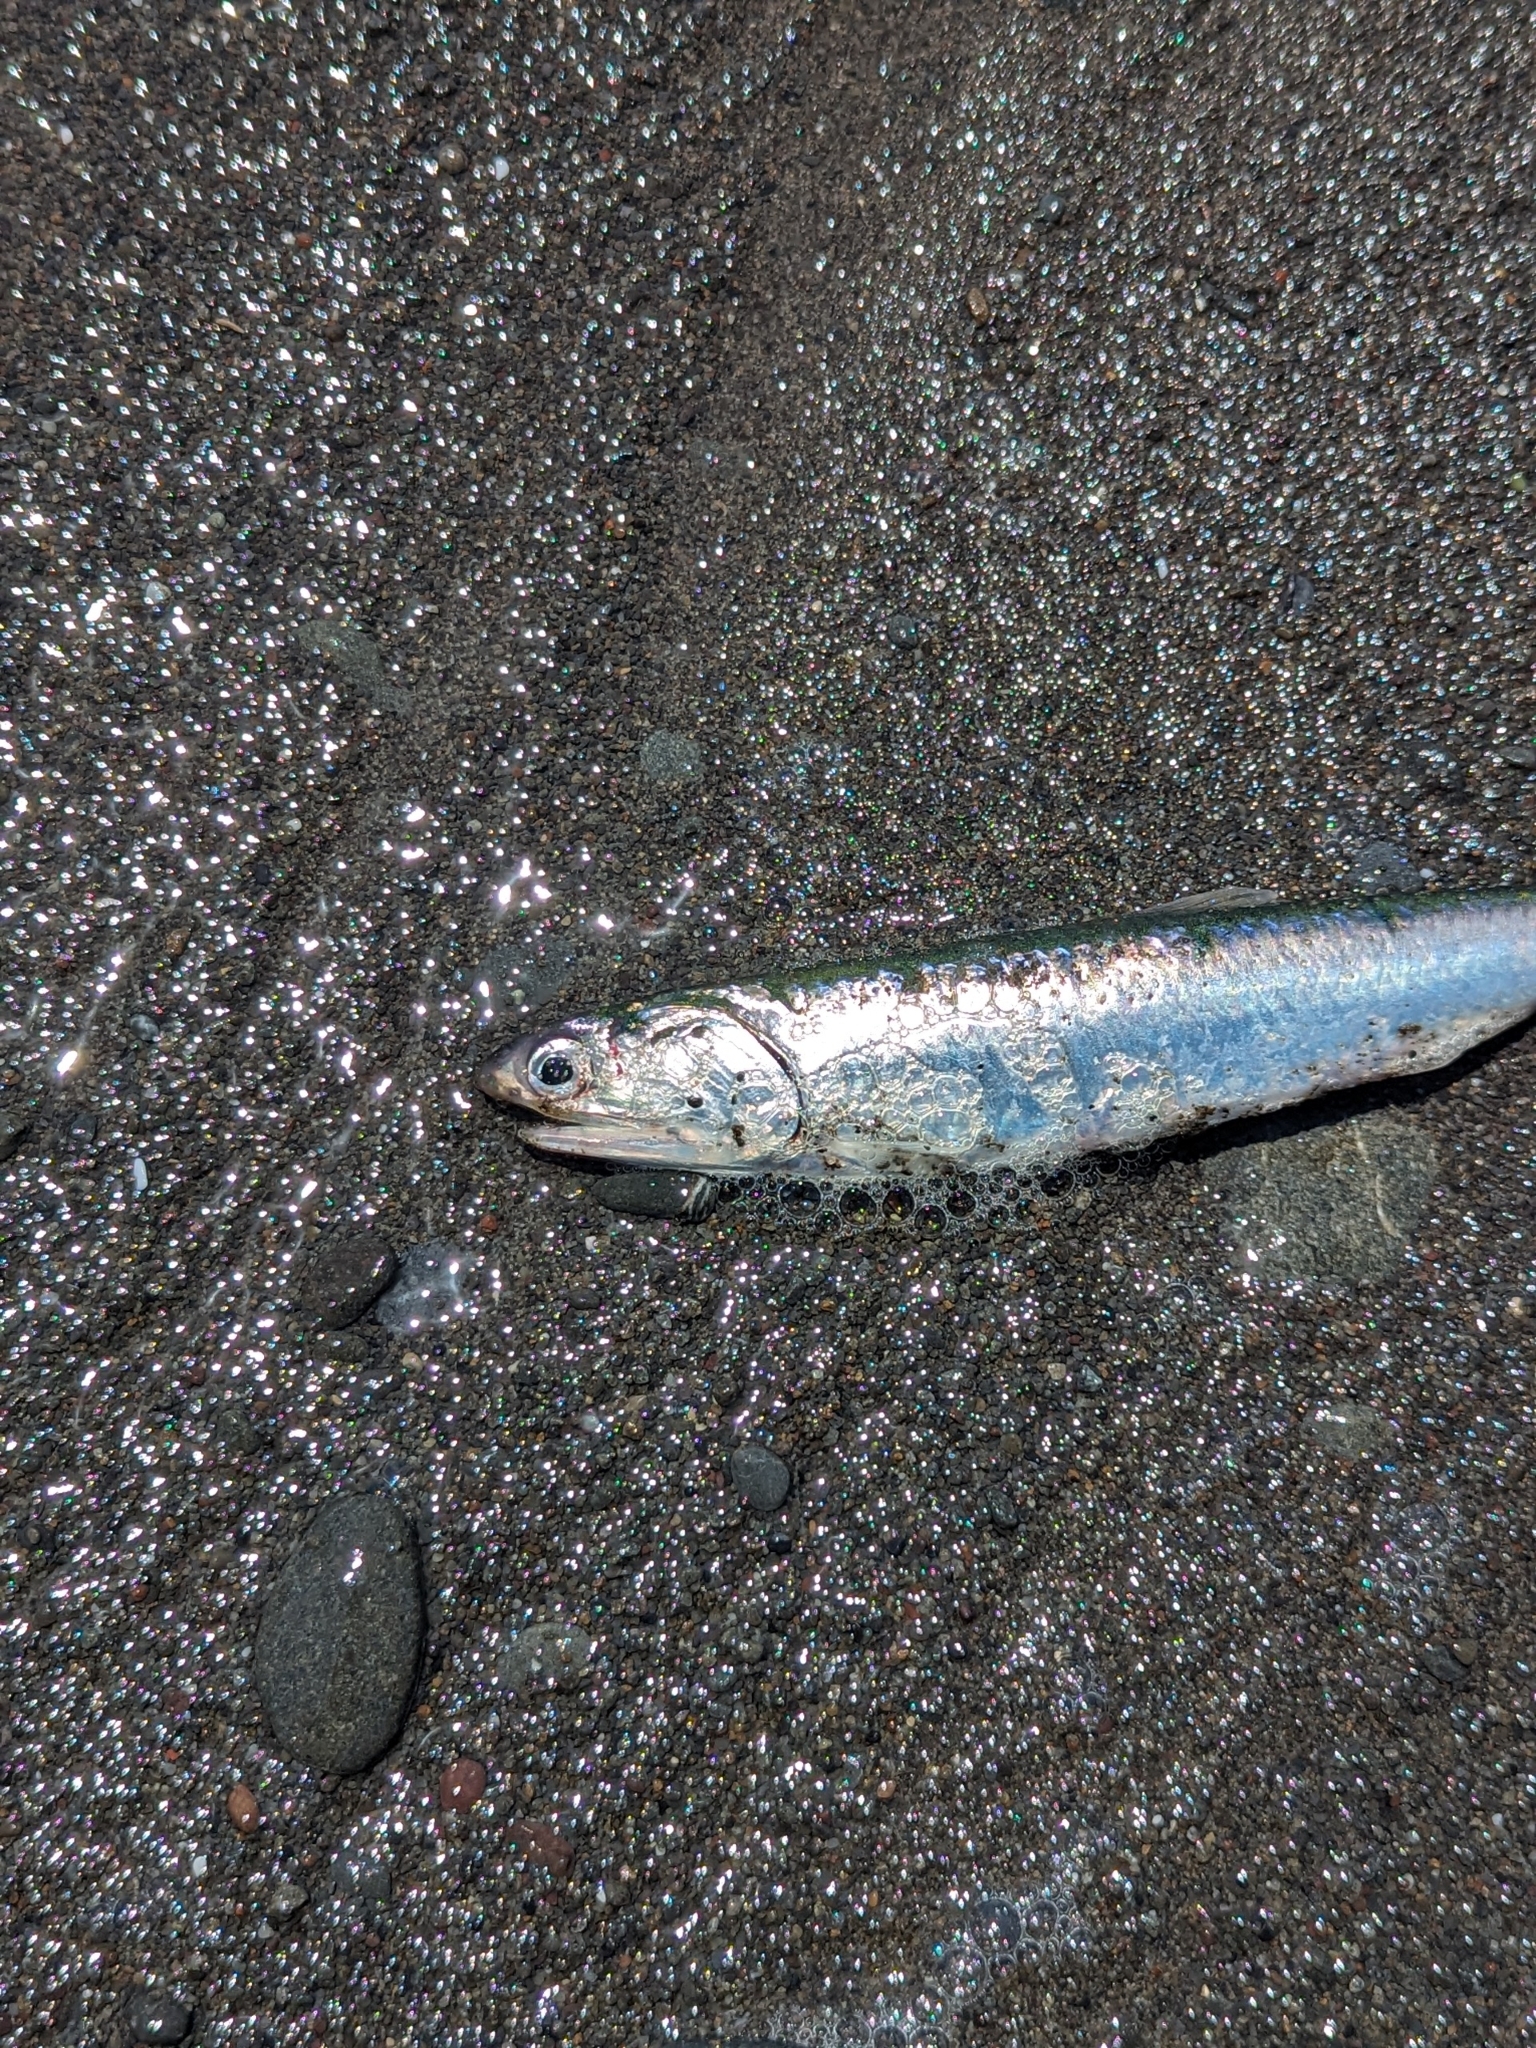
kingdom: Animalia
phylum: Chordata
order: Clupeiformes
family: Engraulidae
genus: Engraulis
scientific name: Engraulis mordax
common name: Northern anchovy
